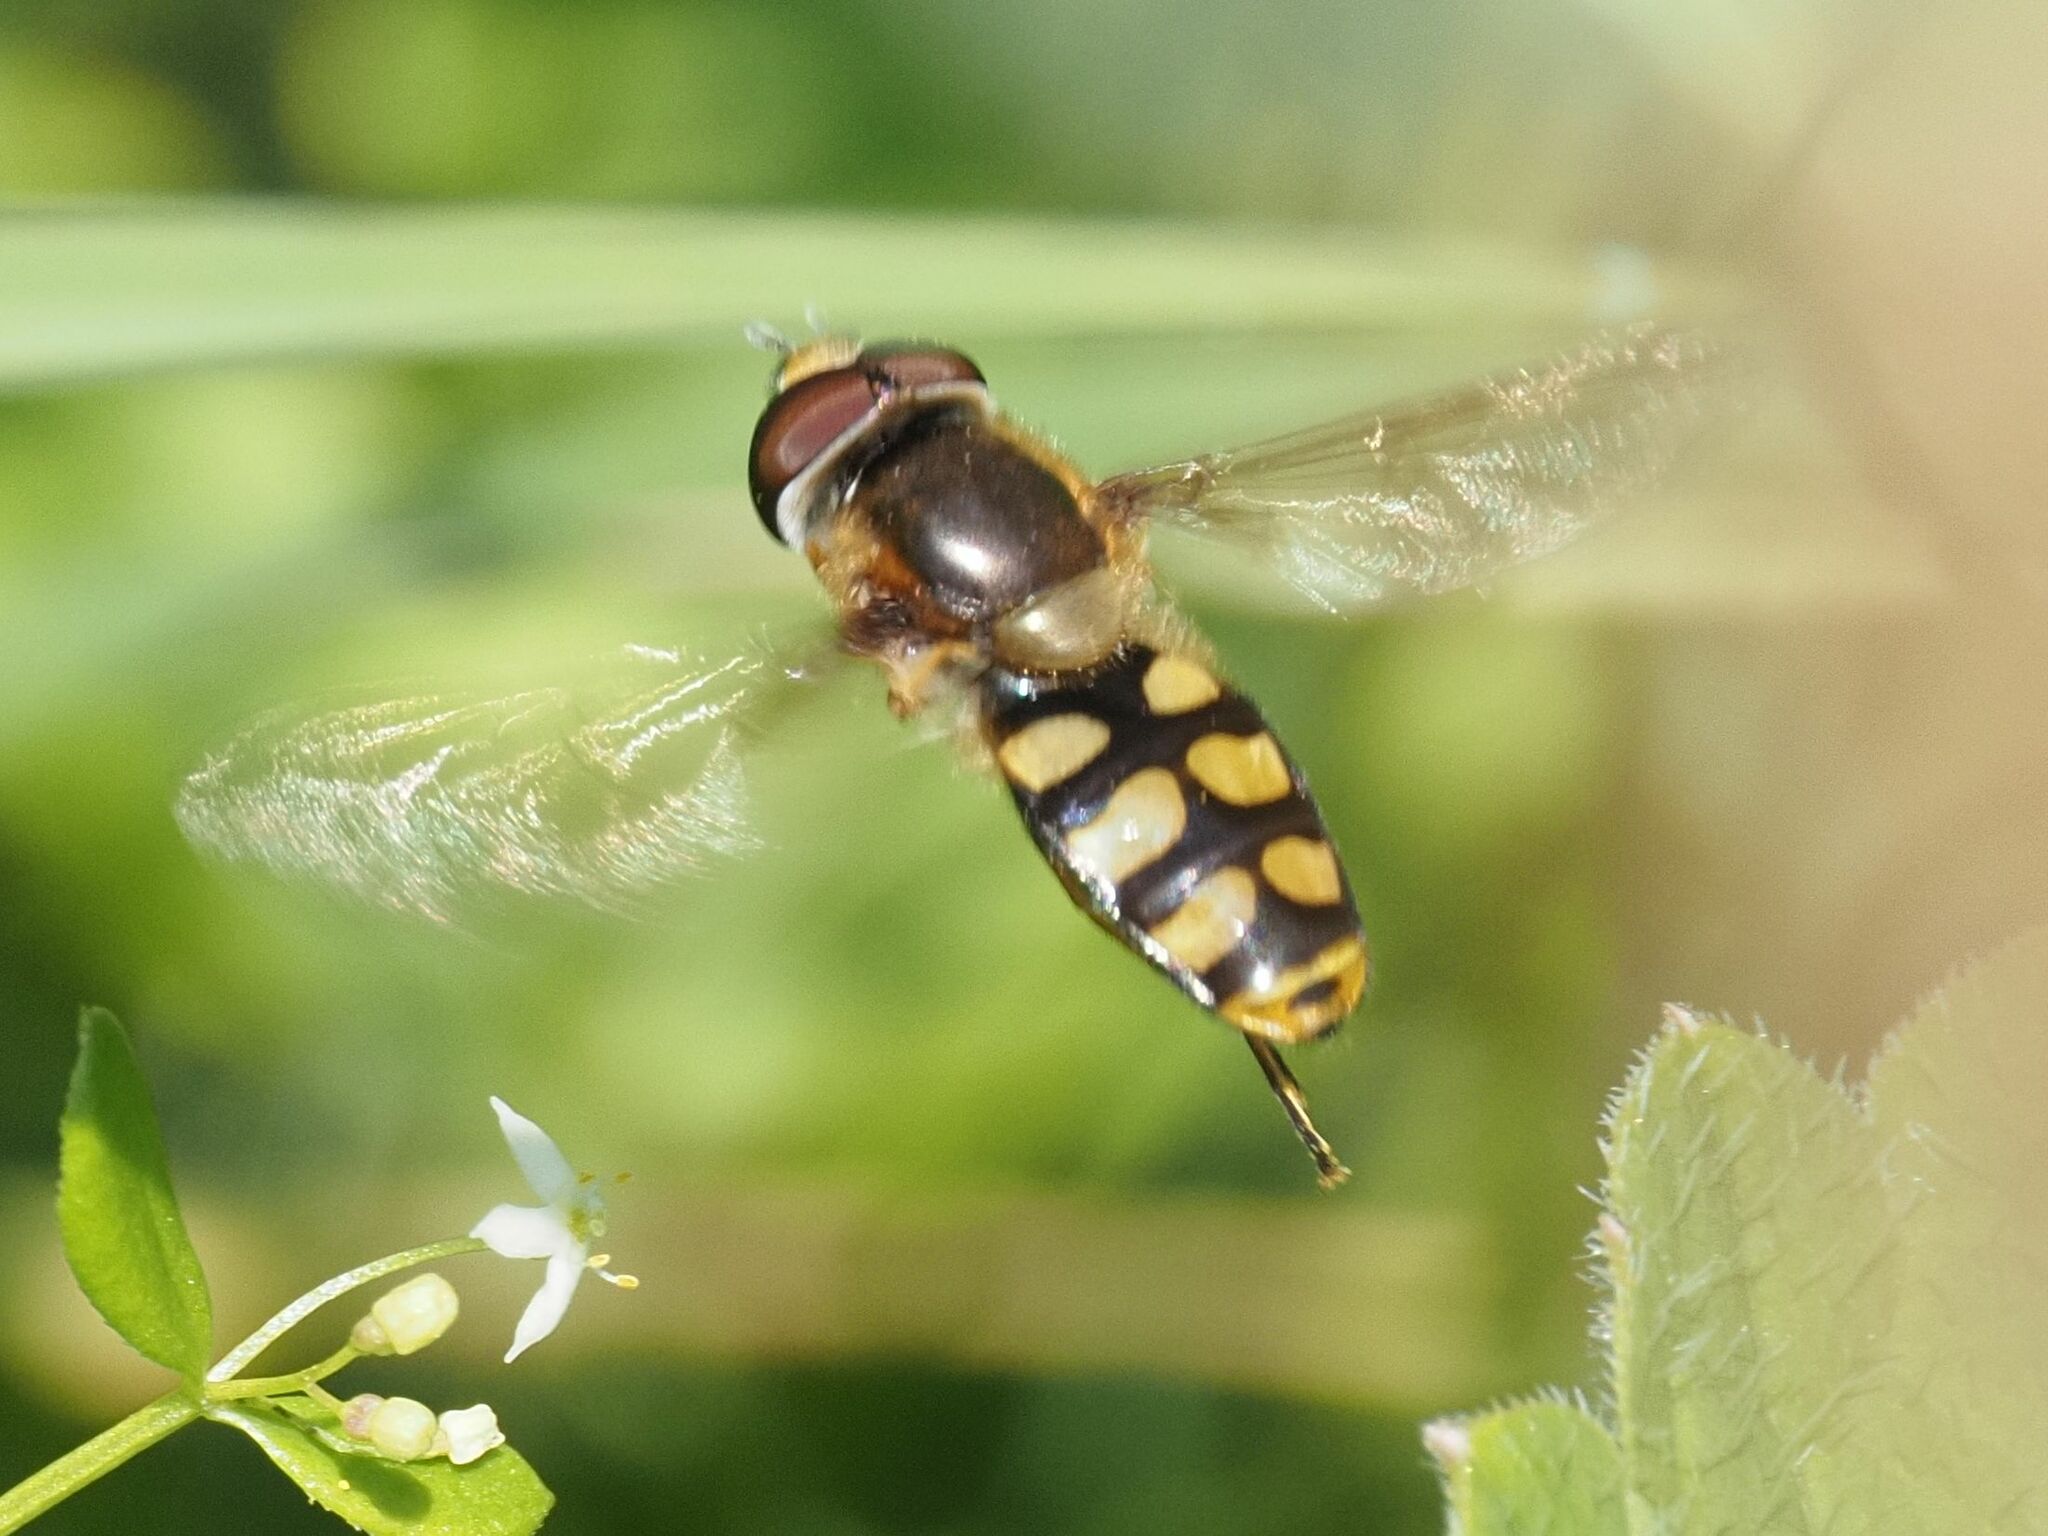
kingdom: Animalia
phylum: Arthropoda
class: Insecta
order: Diptera
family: Syrphidae
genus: Eupeodes
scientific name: Eupeodes luniger
